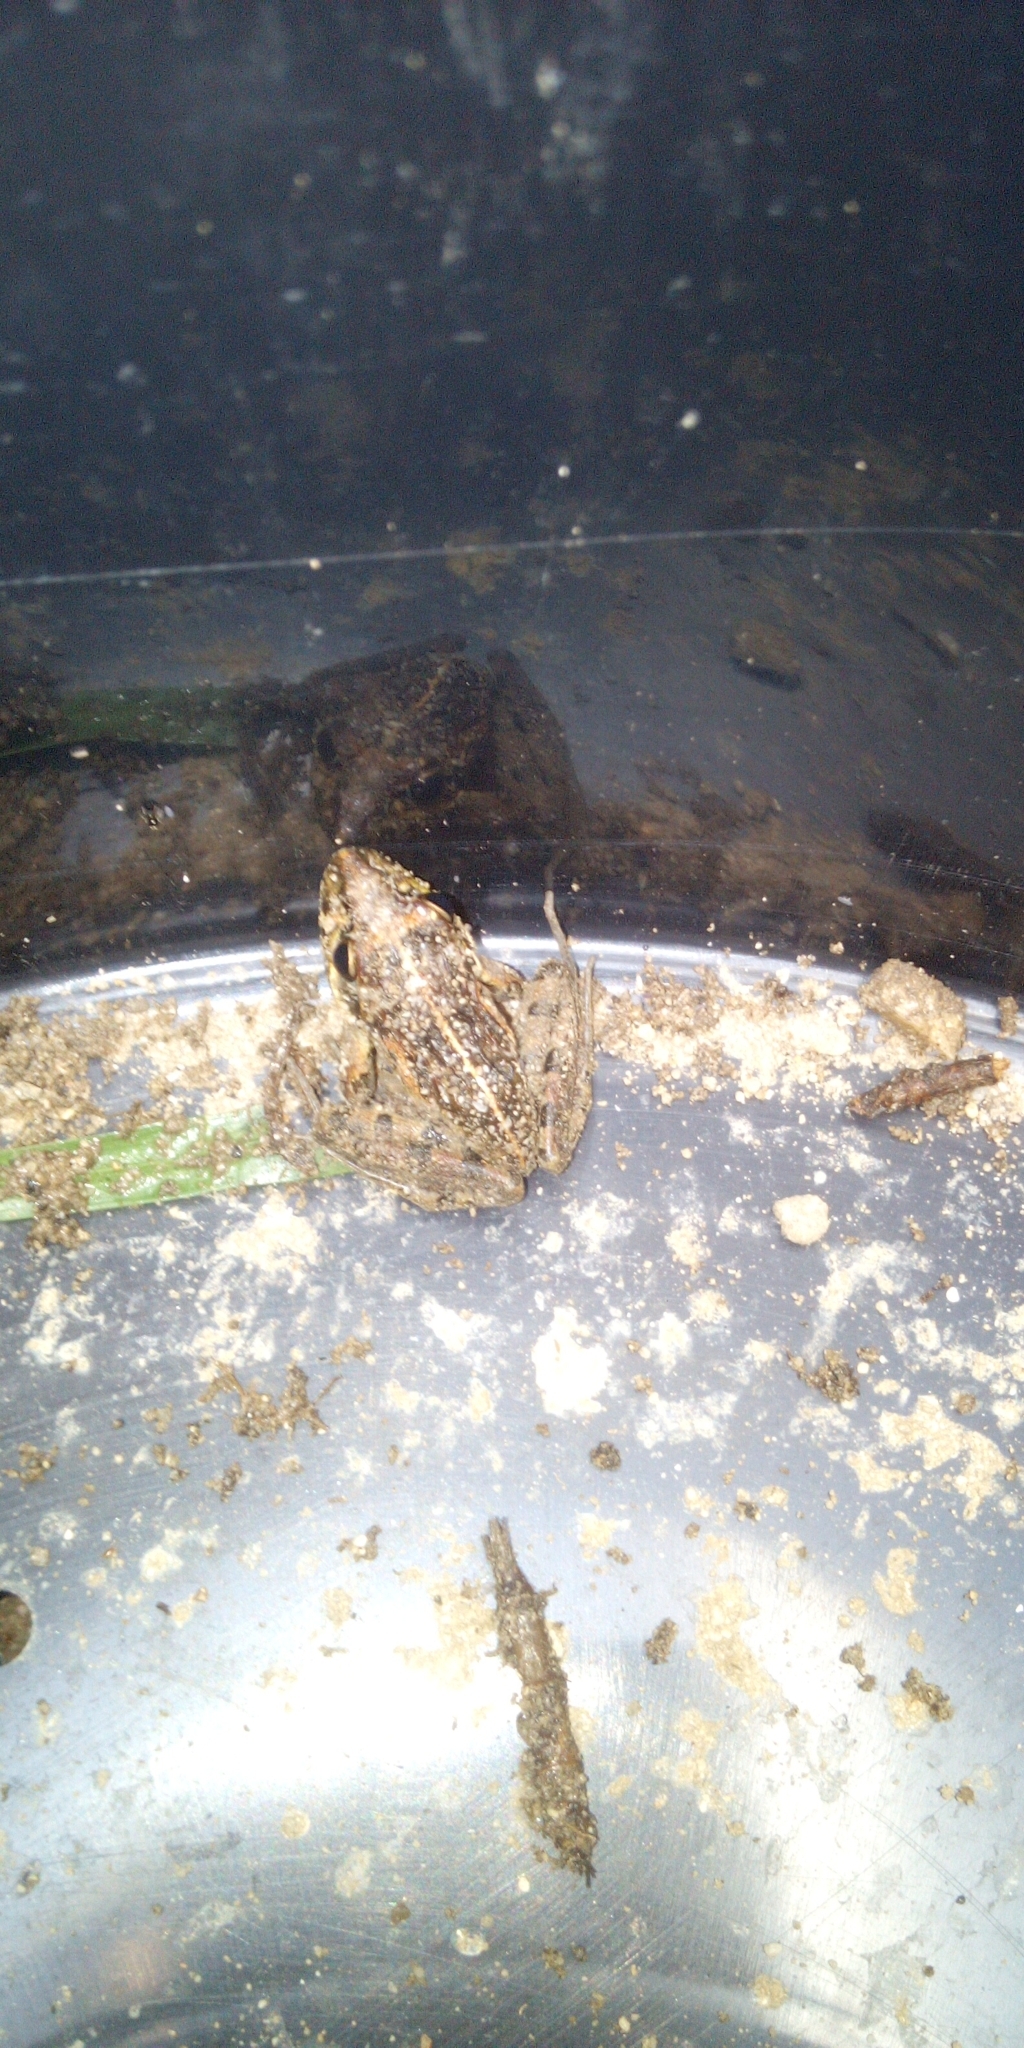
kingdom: Animalia
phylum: Chordata
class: Amphibia
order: Anura
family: Pyxicephalidae
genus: Strongylopus
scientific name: Strongylopus grayii
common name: Gray's stream frog
